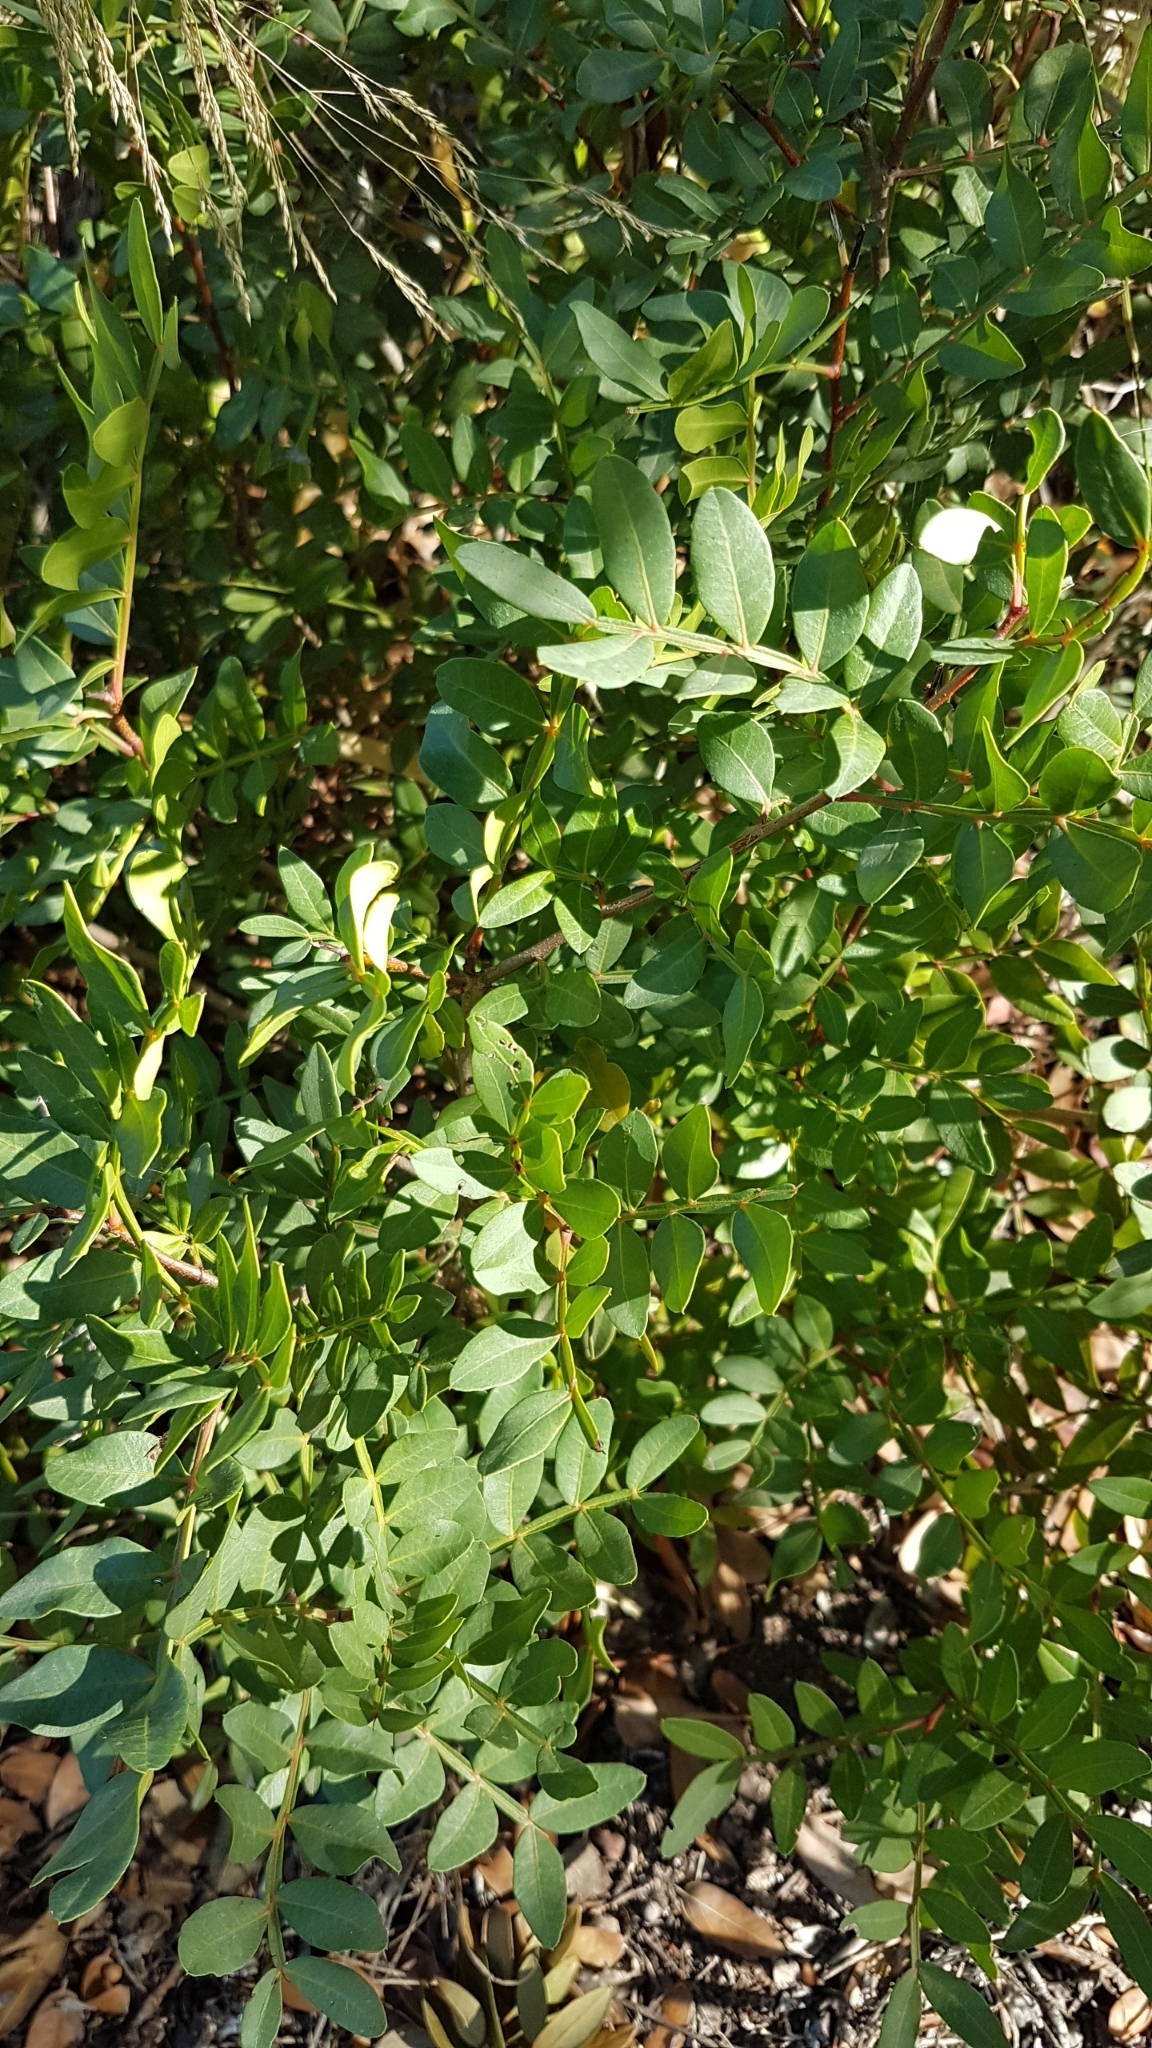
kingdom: Plantae
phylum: Tracheophyta
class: Magnoliopsida
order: Sapindales
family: Anacardiaceae
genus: Pistacia
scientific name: Pistacia lentiscus
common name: Lentisk
